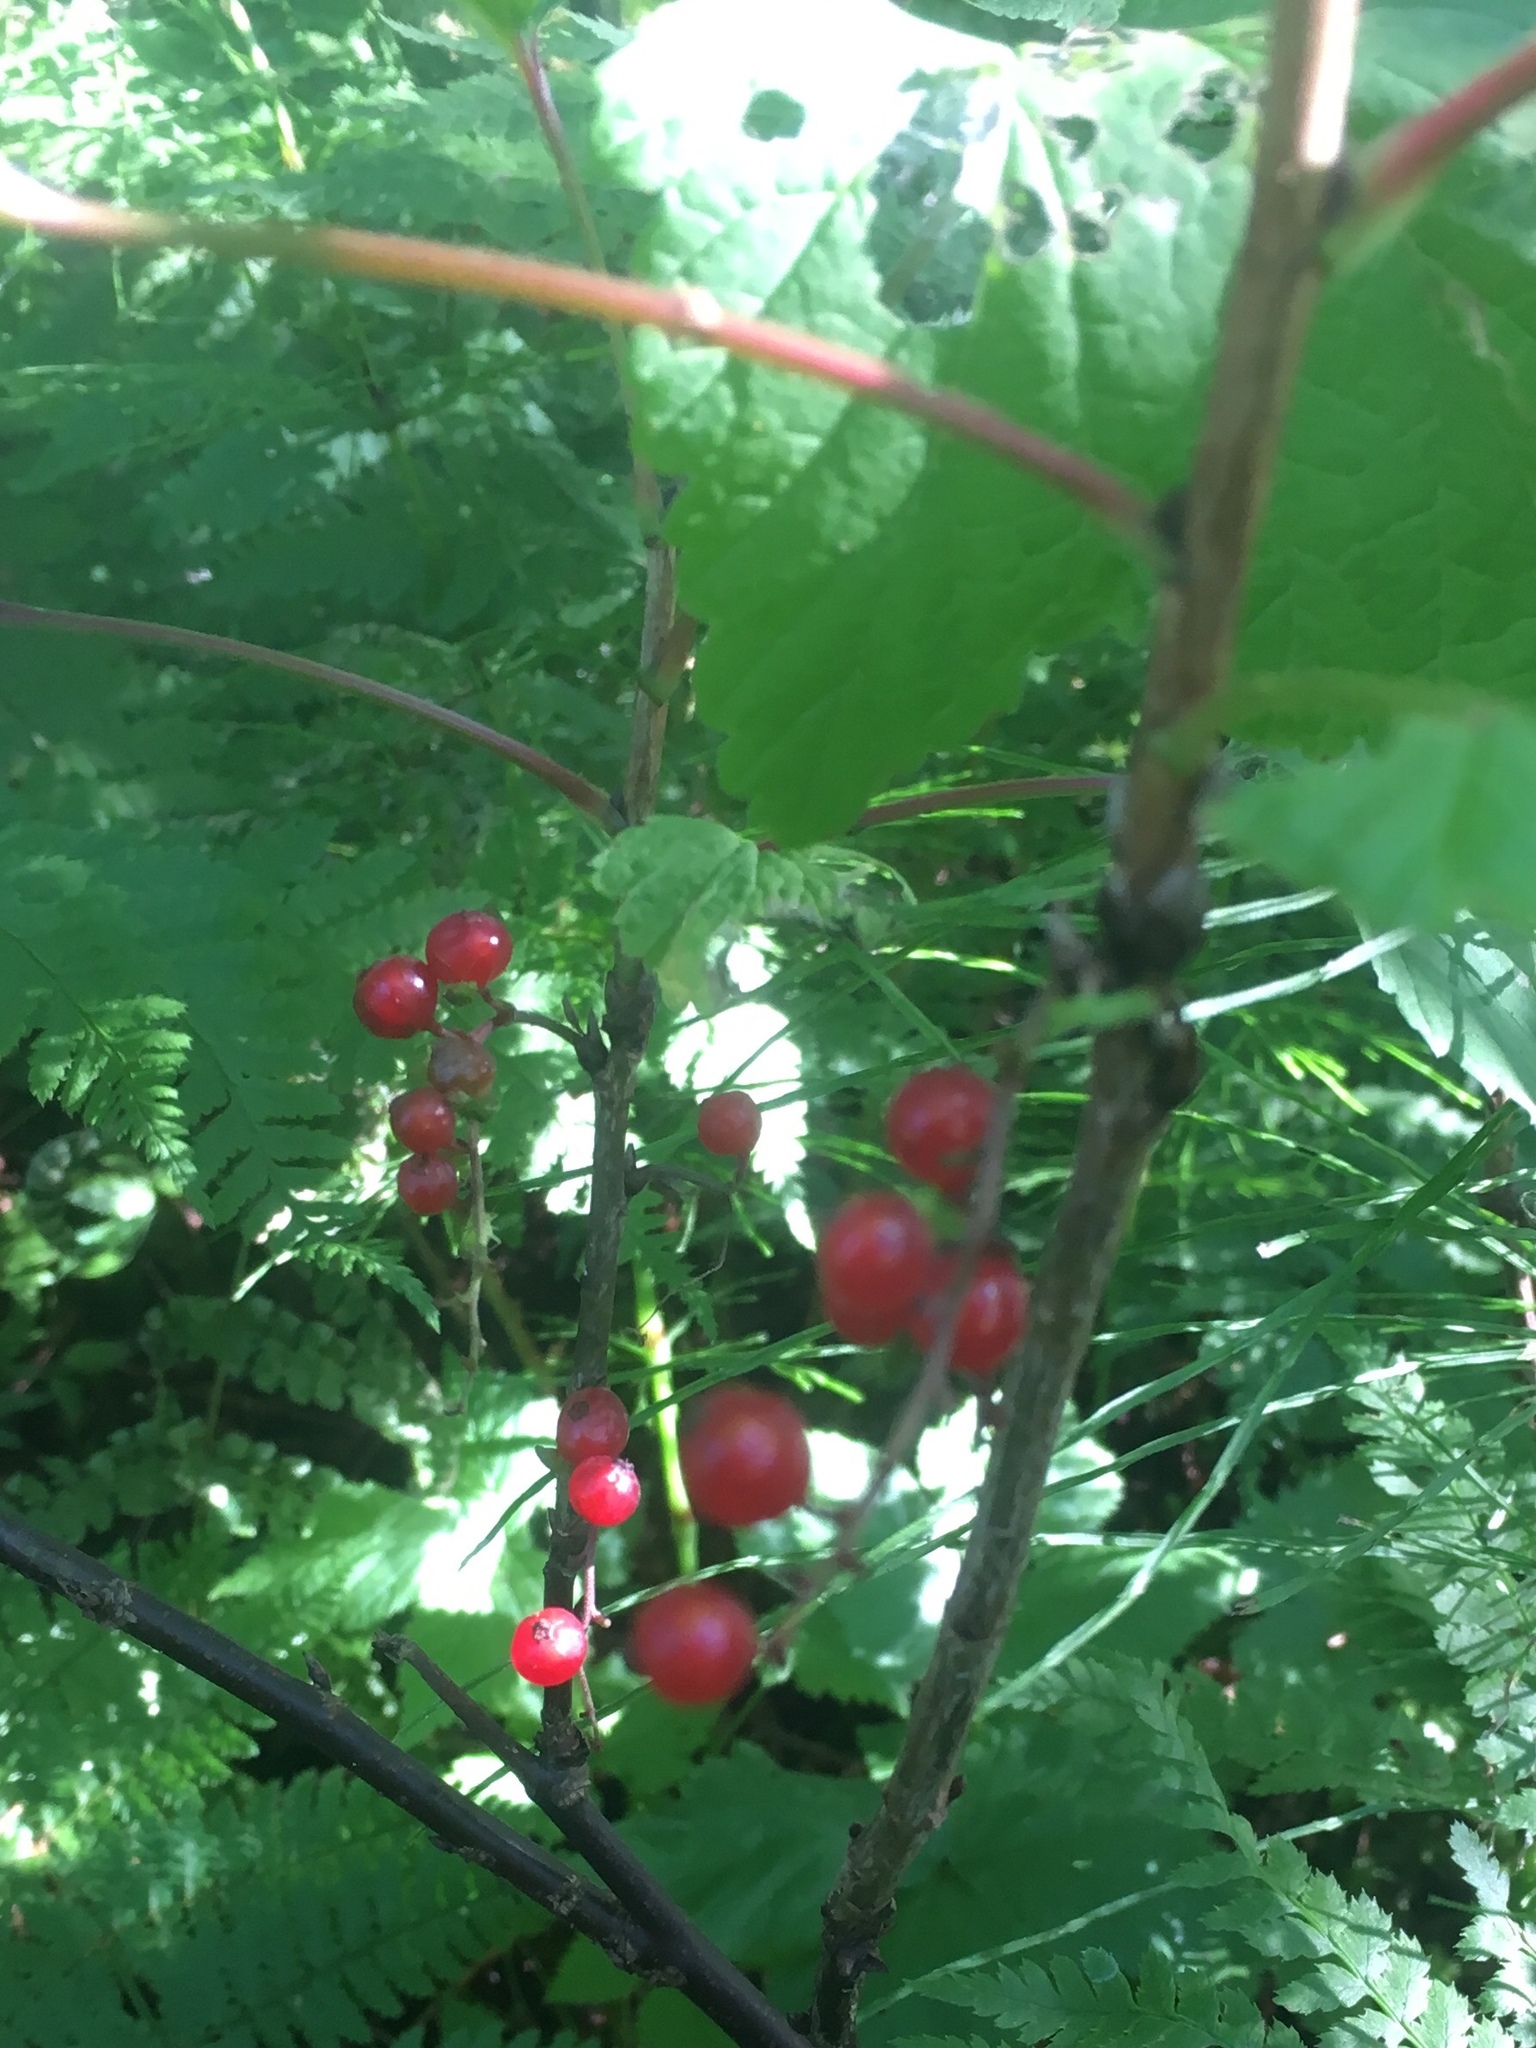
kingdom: Plantae
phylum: Tracheophyta
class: Magnoliopsida
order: Saxifragales
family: Grossulariaceae
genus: Ribes
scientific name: Ribes triste
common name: Swamp red currant
